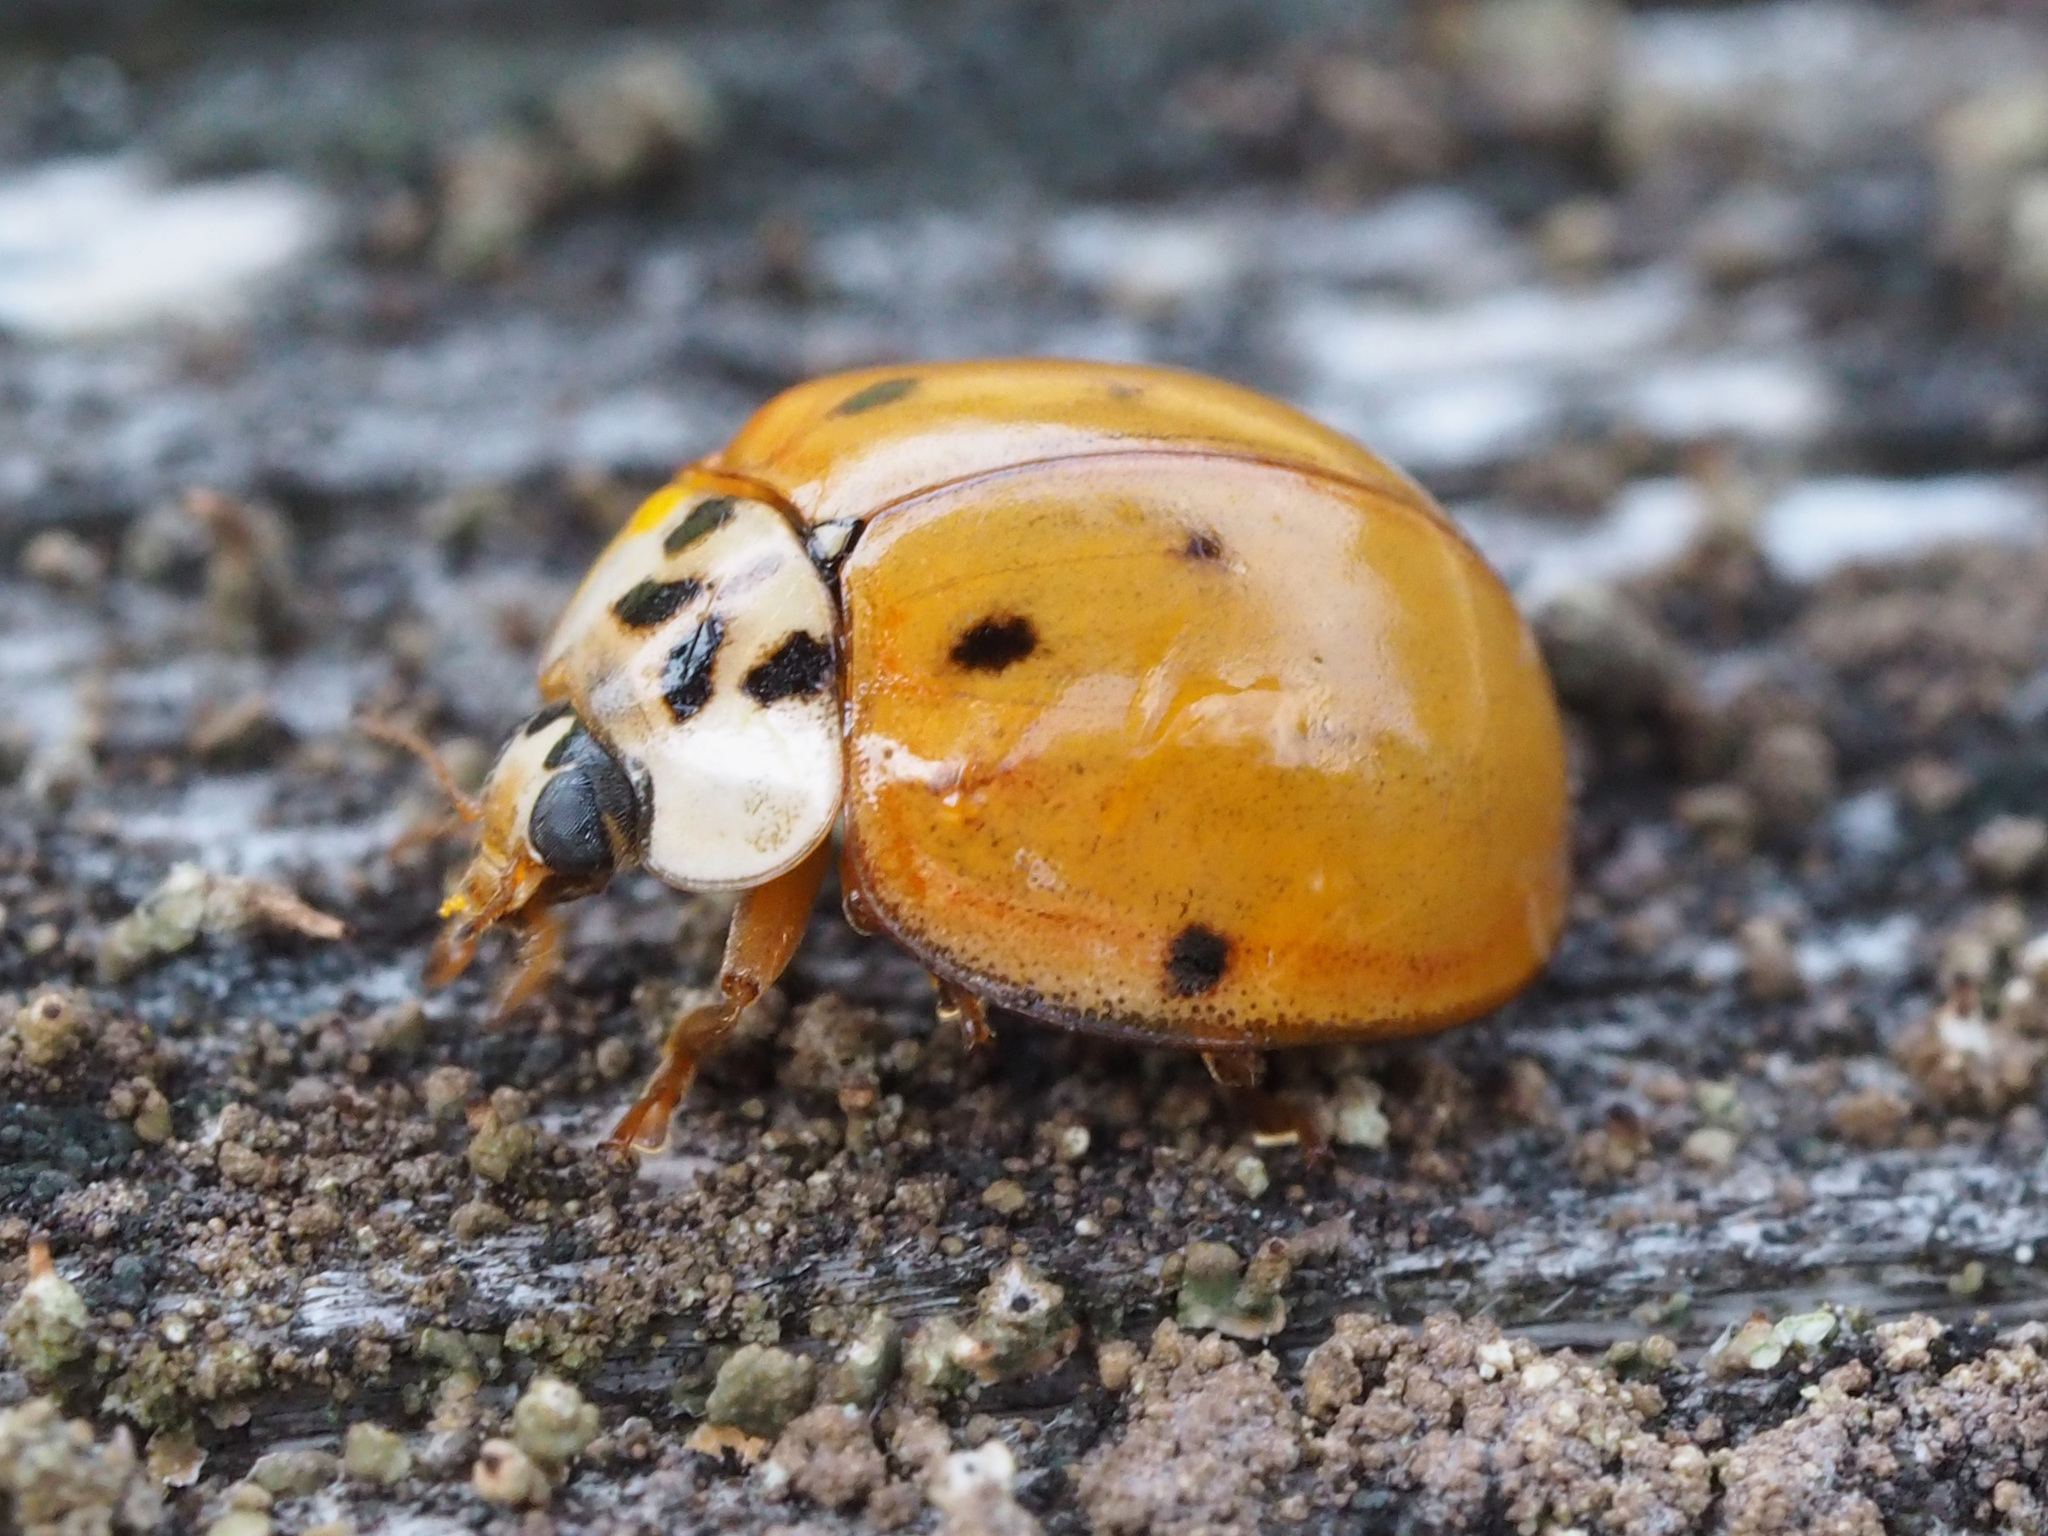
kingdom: Animalia
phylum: Arthropoda
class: Insecta
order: Coleoptera
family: Coccinellidae
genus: Harmonia
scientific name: Harmonia axyridis
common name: Harlequin ladybird
